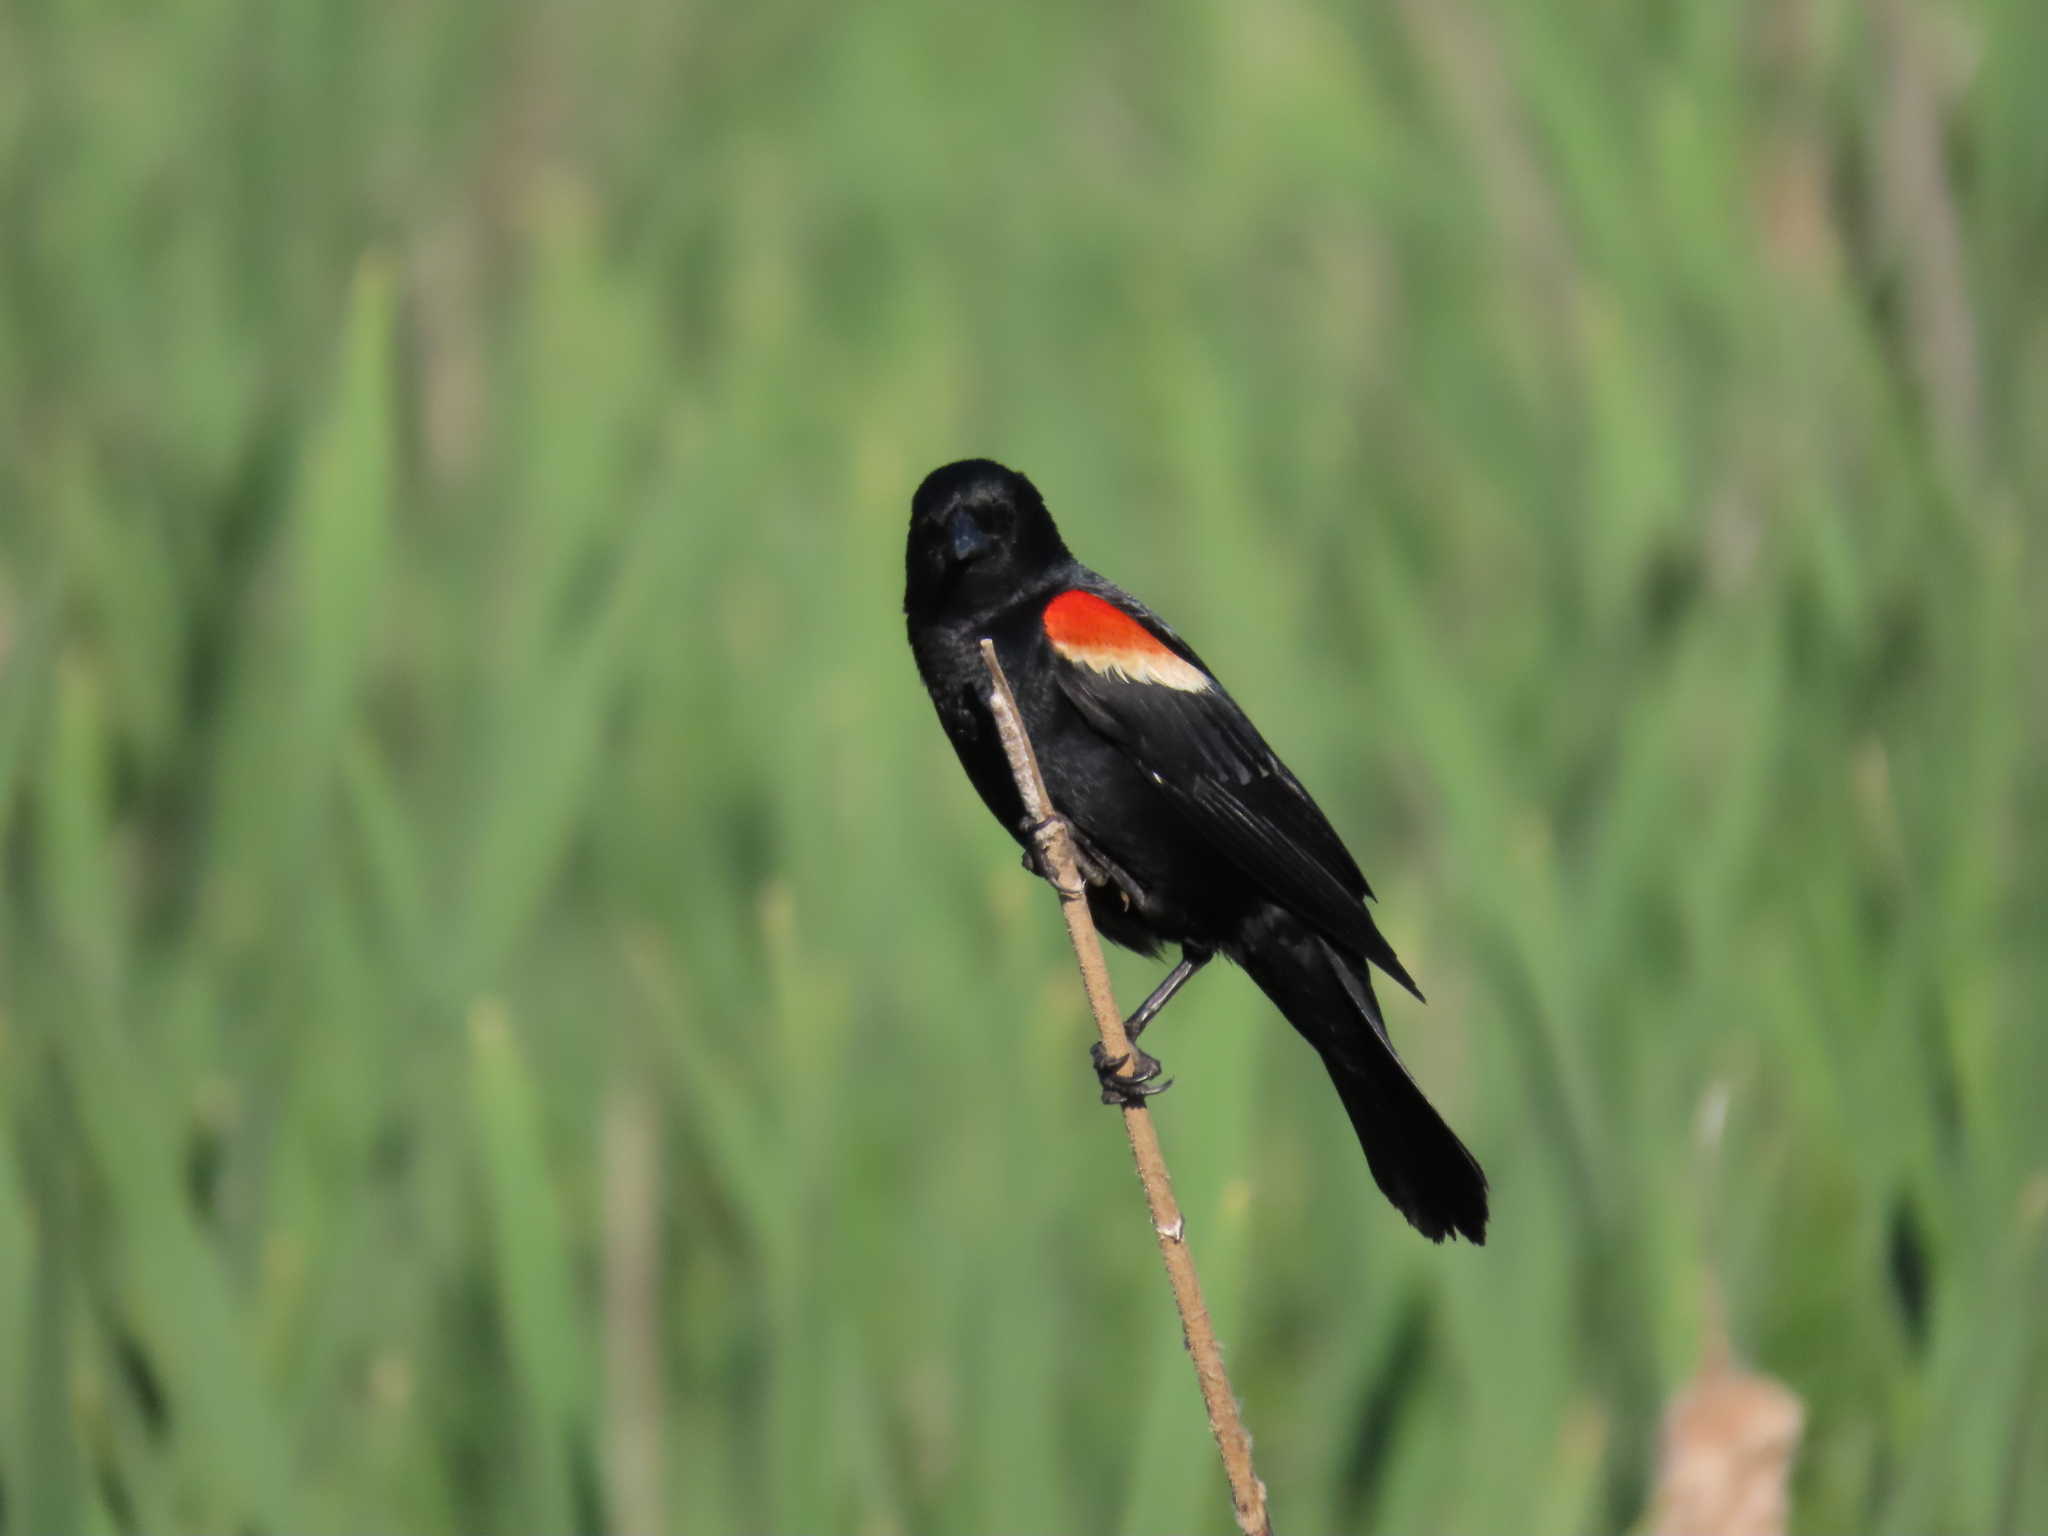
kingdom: Animalia
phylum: Chordata
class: Aves
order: Passeriformes
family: Icteridae
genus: Agelaius
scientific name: Agelaius phoeniceus
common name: Red-winged blackbird
